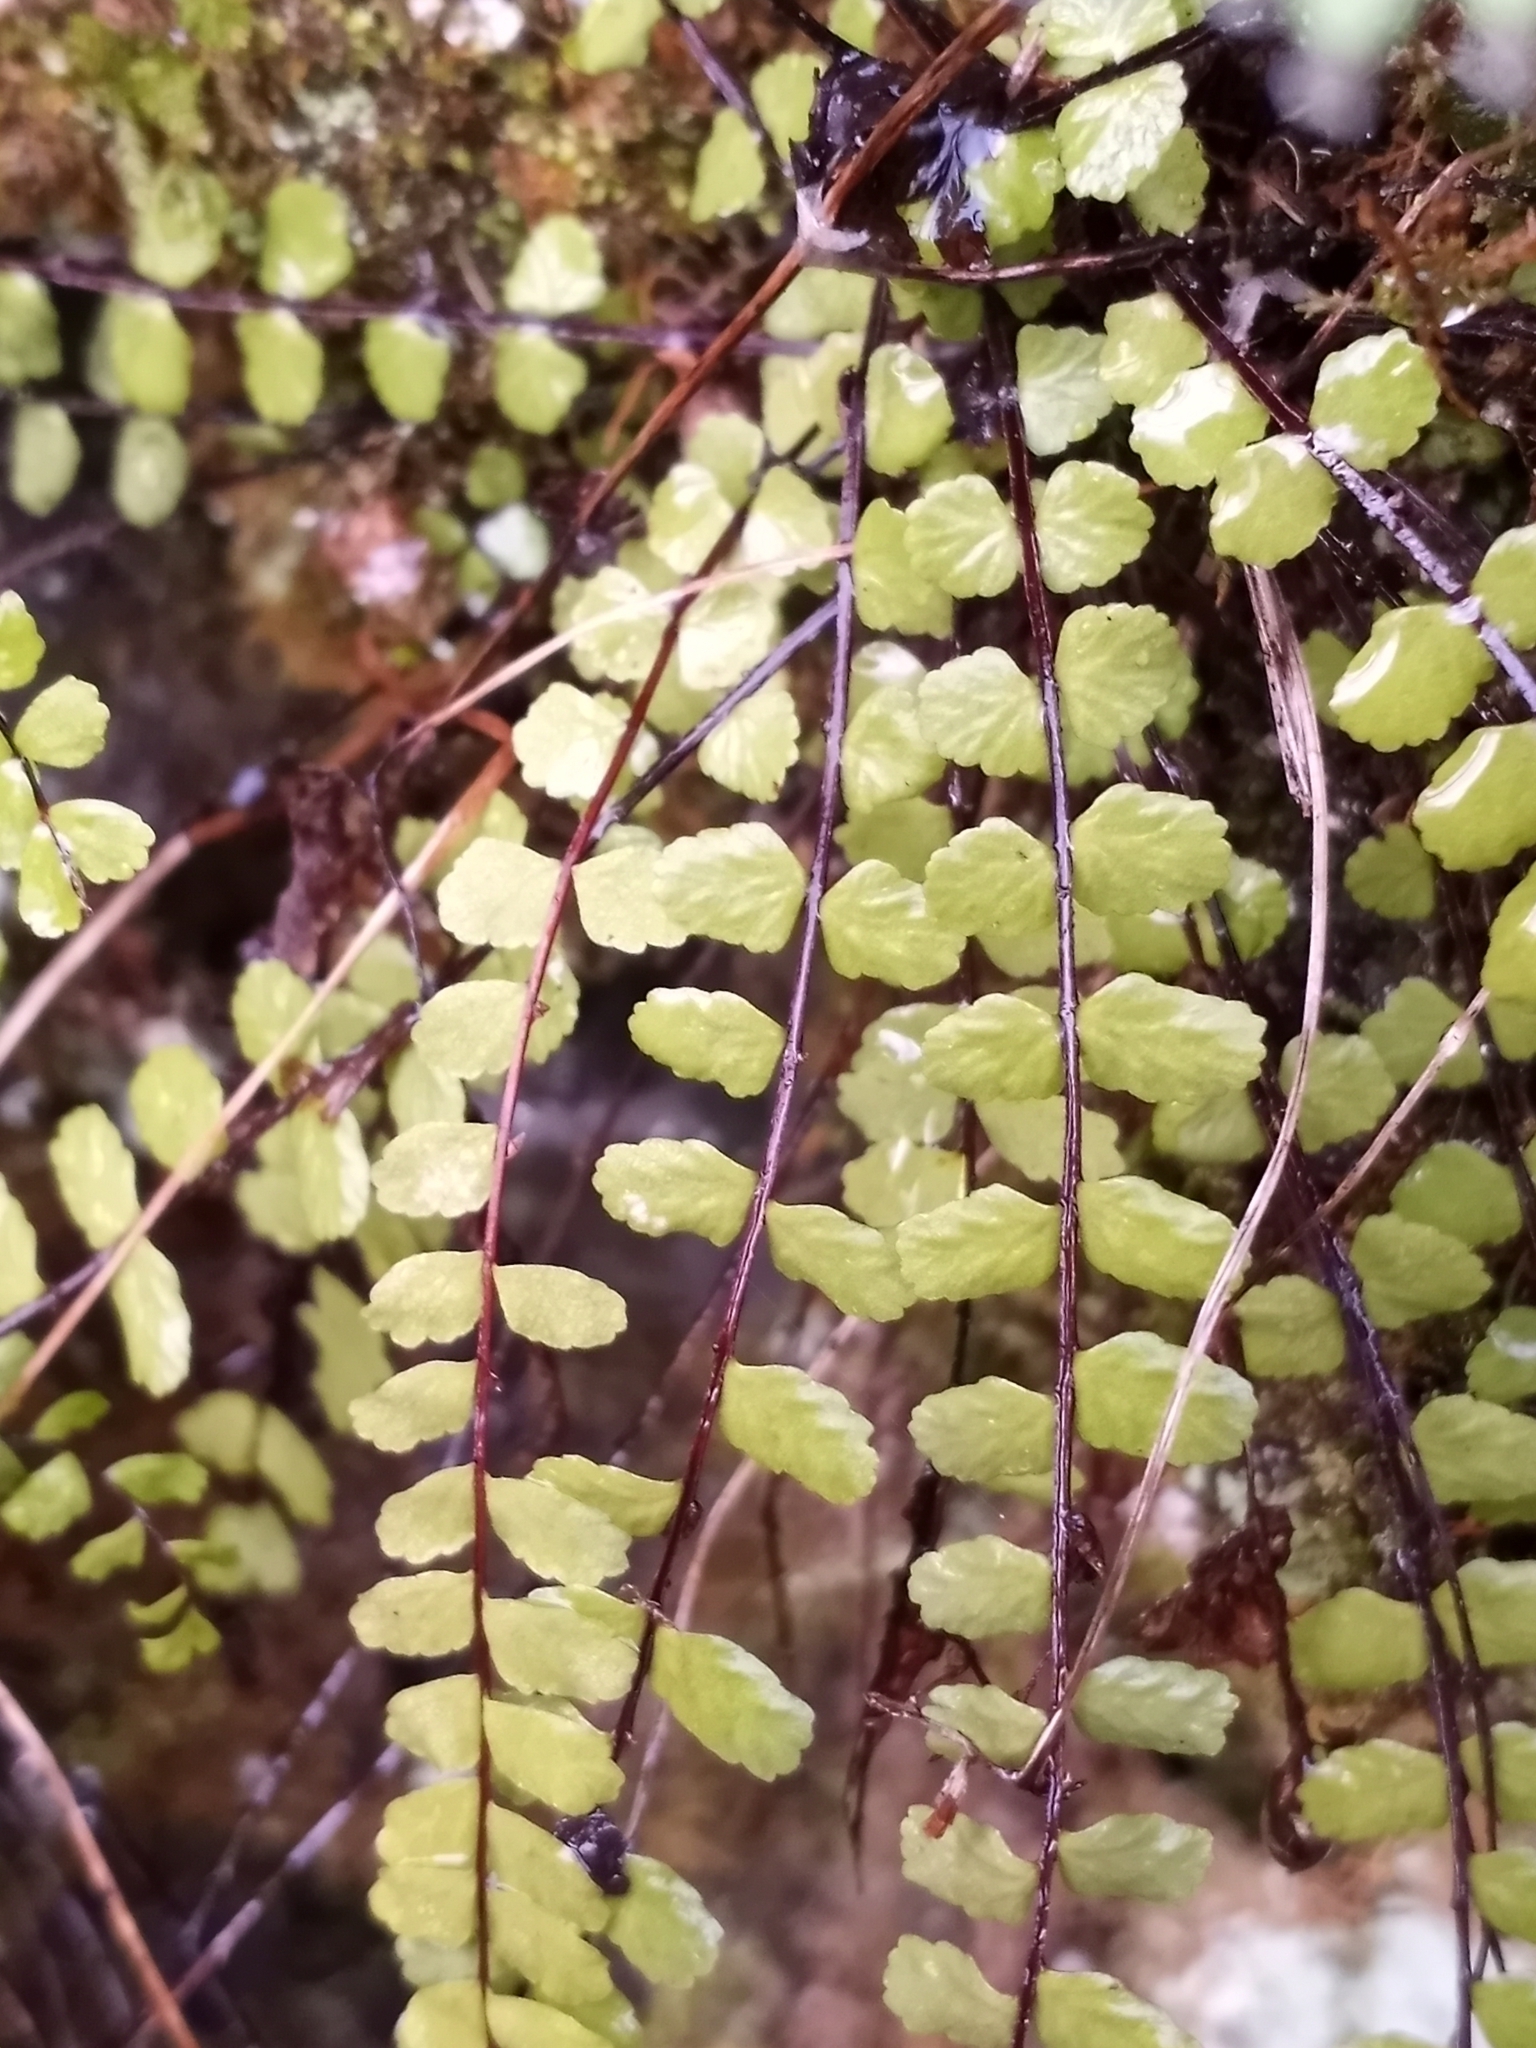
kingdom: Plantae
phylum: Tracheophyta
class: Polypodiopsida
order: Polypodiales
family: Aspleniaceae
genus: Asplenium
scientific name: Asplenium quadrivalens
